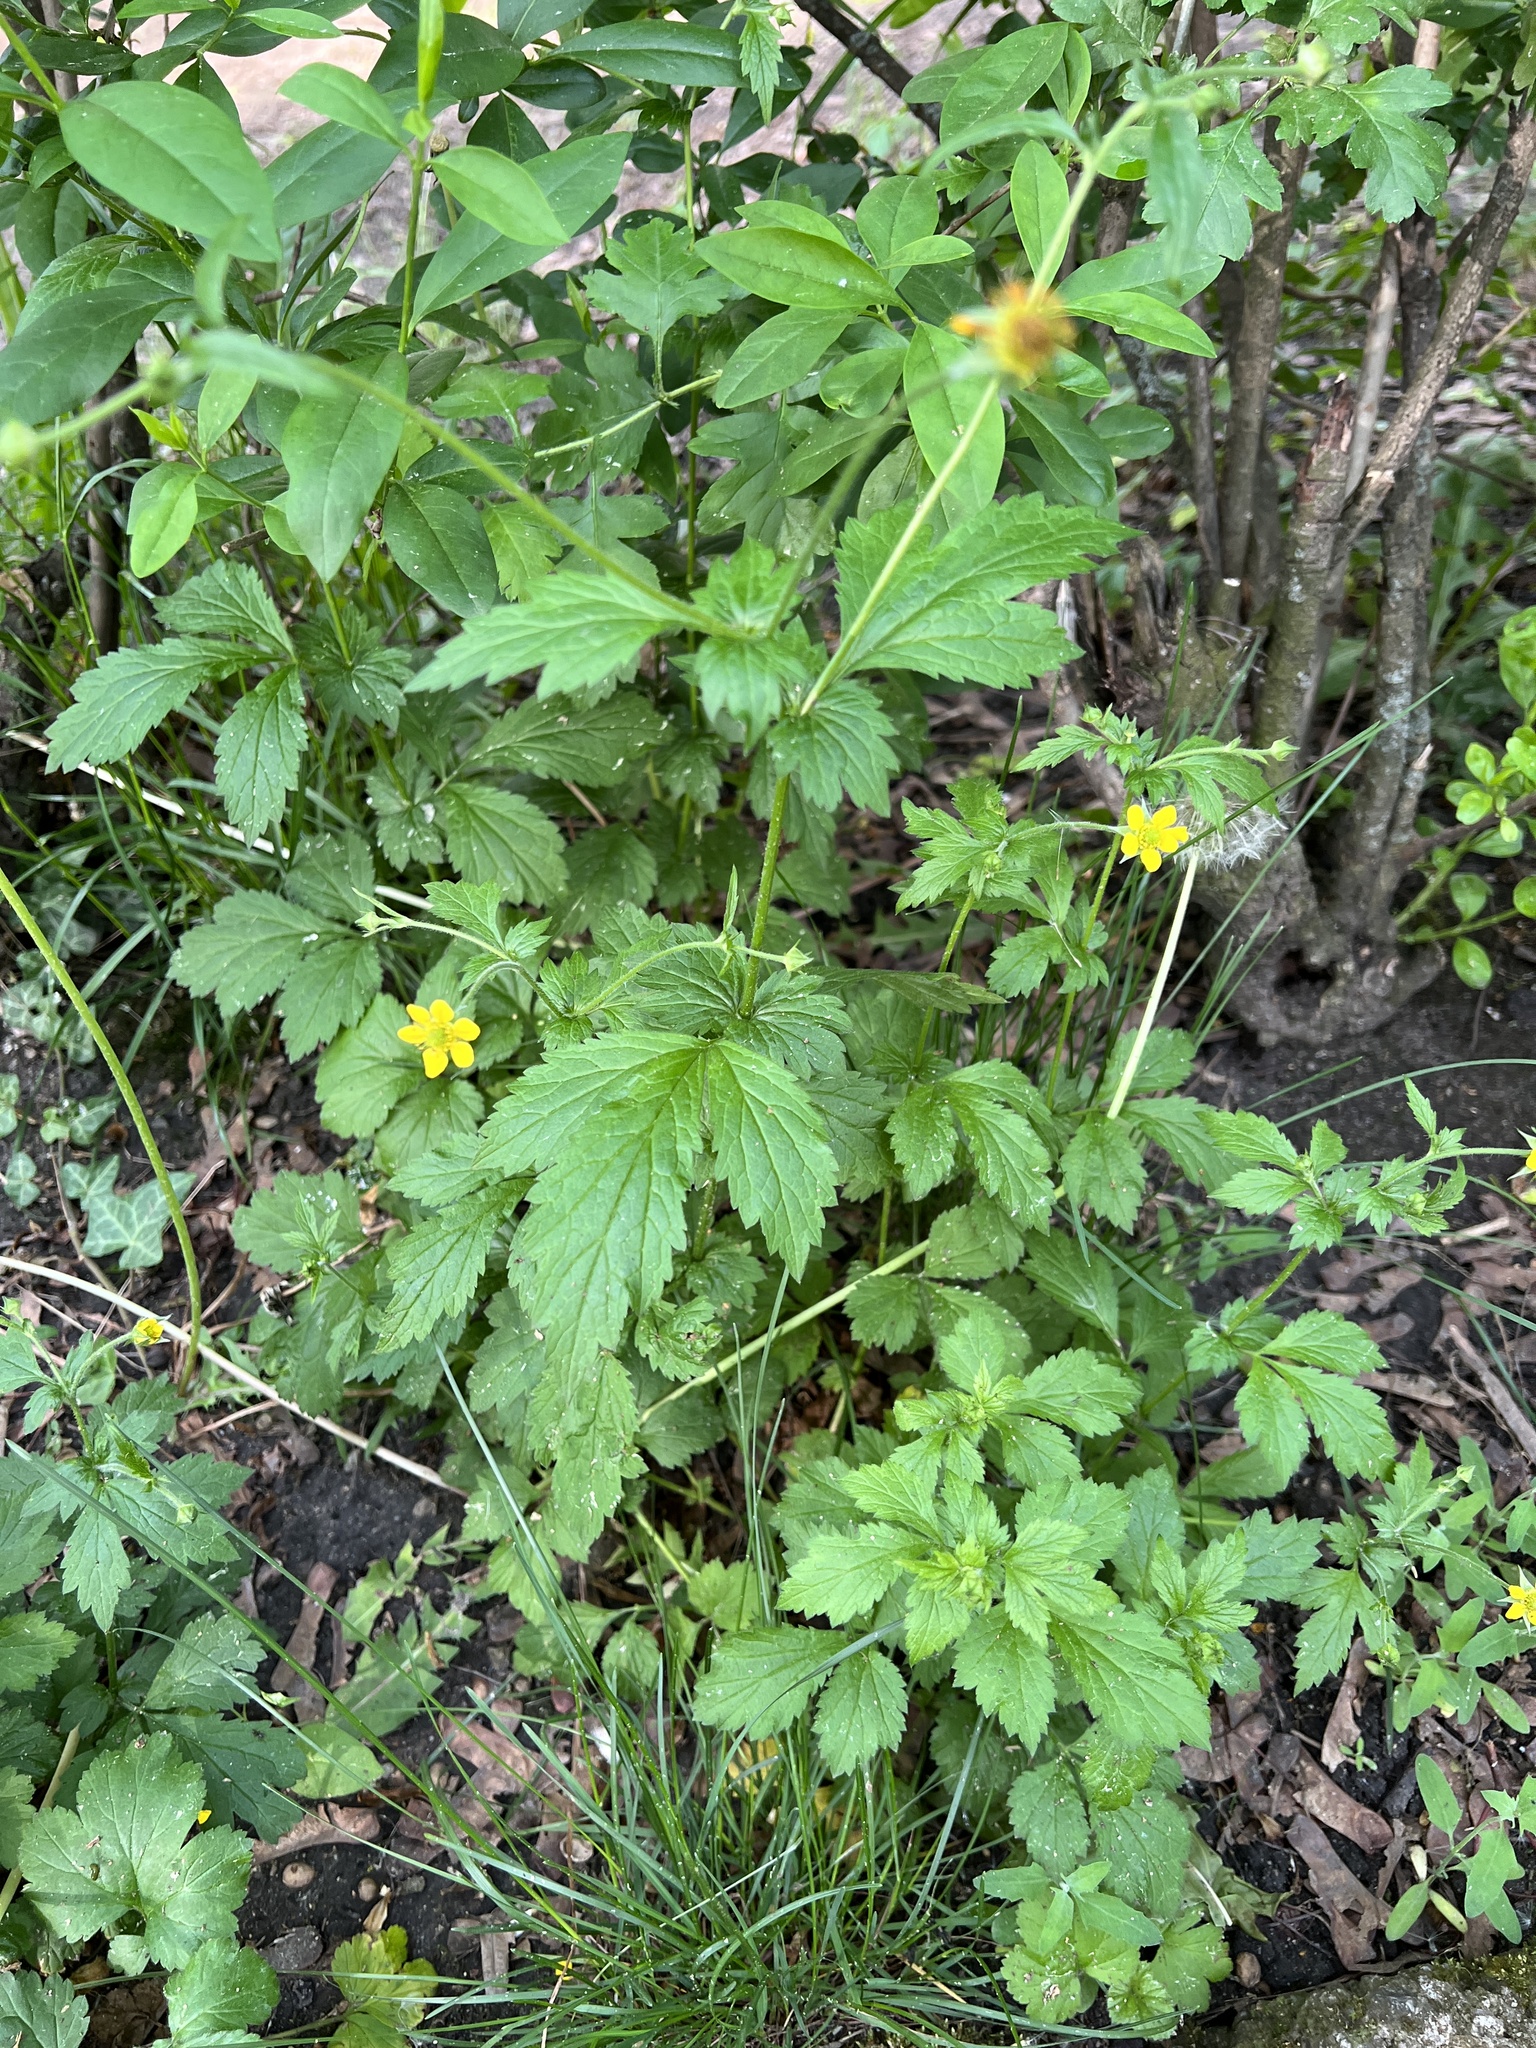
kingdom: Plantae
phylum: Tracheophyta
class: Magnoliopsida
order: Rosales
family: Rosaceae
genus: Geum
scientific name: Geum urbanum
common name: Wood avens
